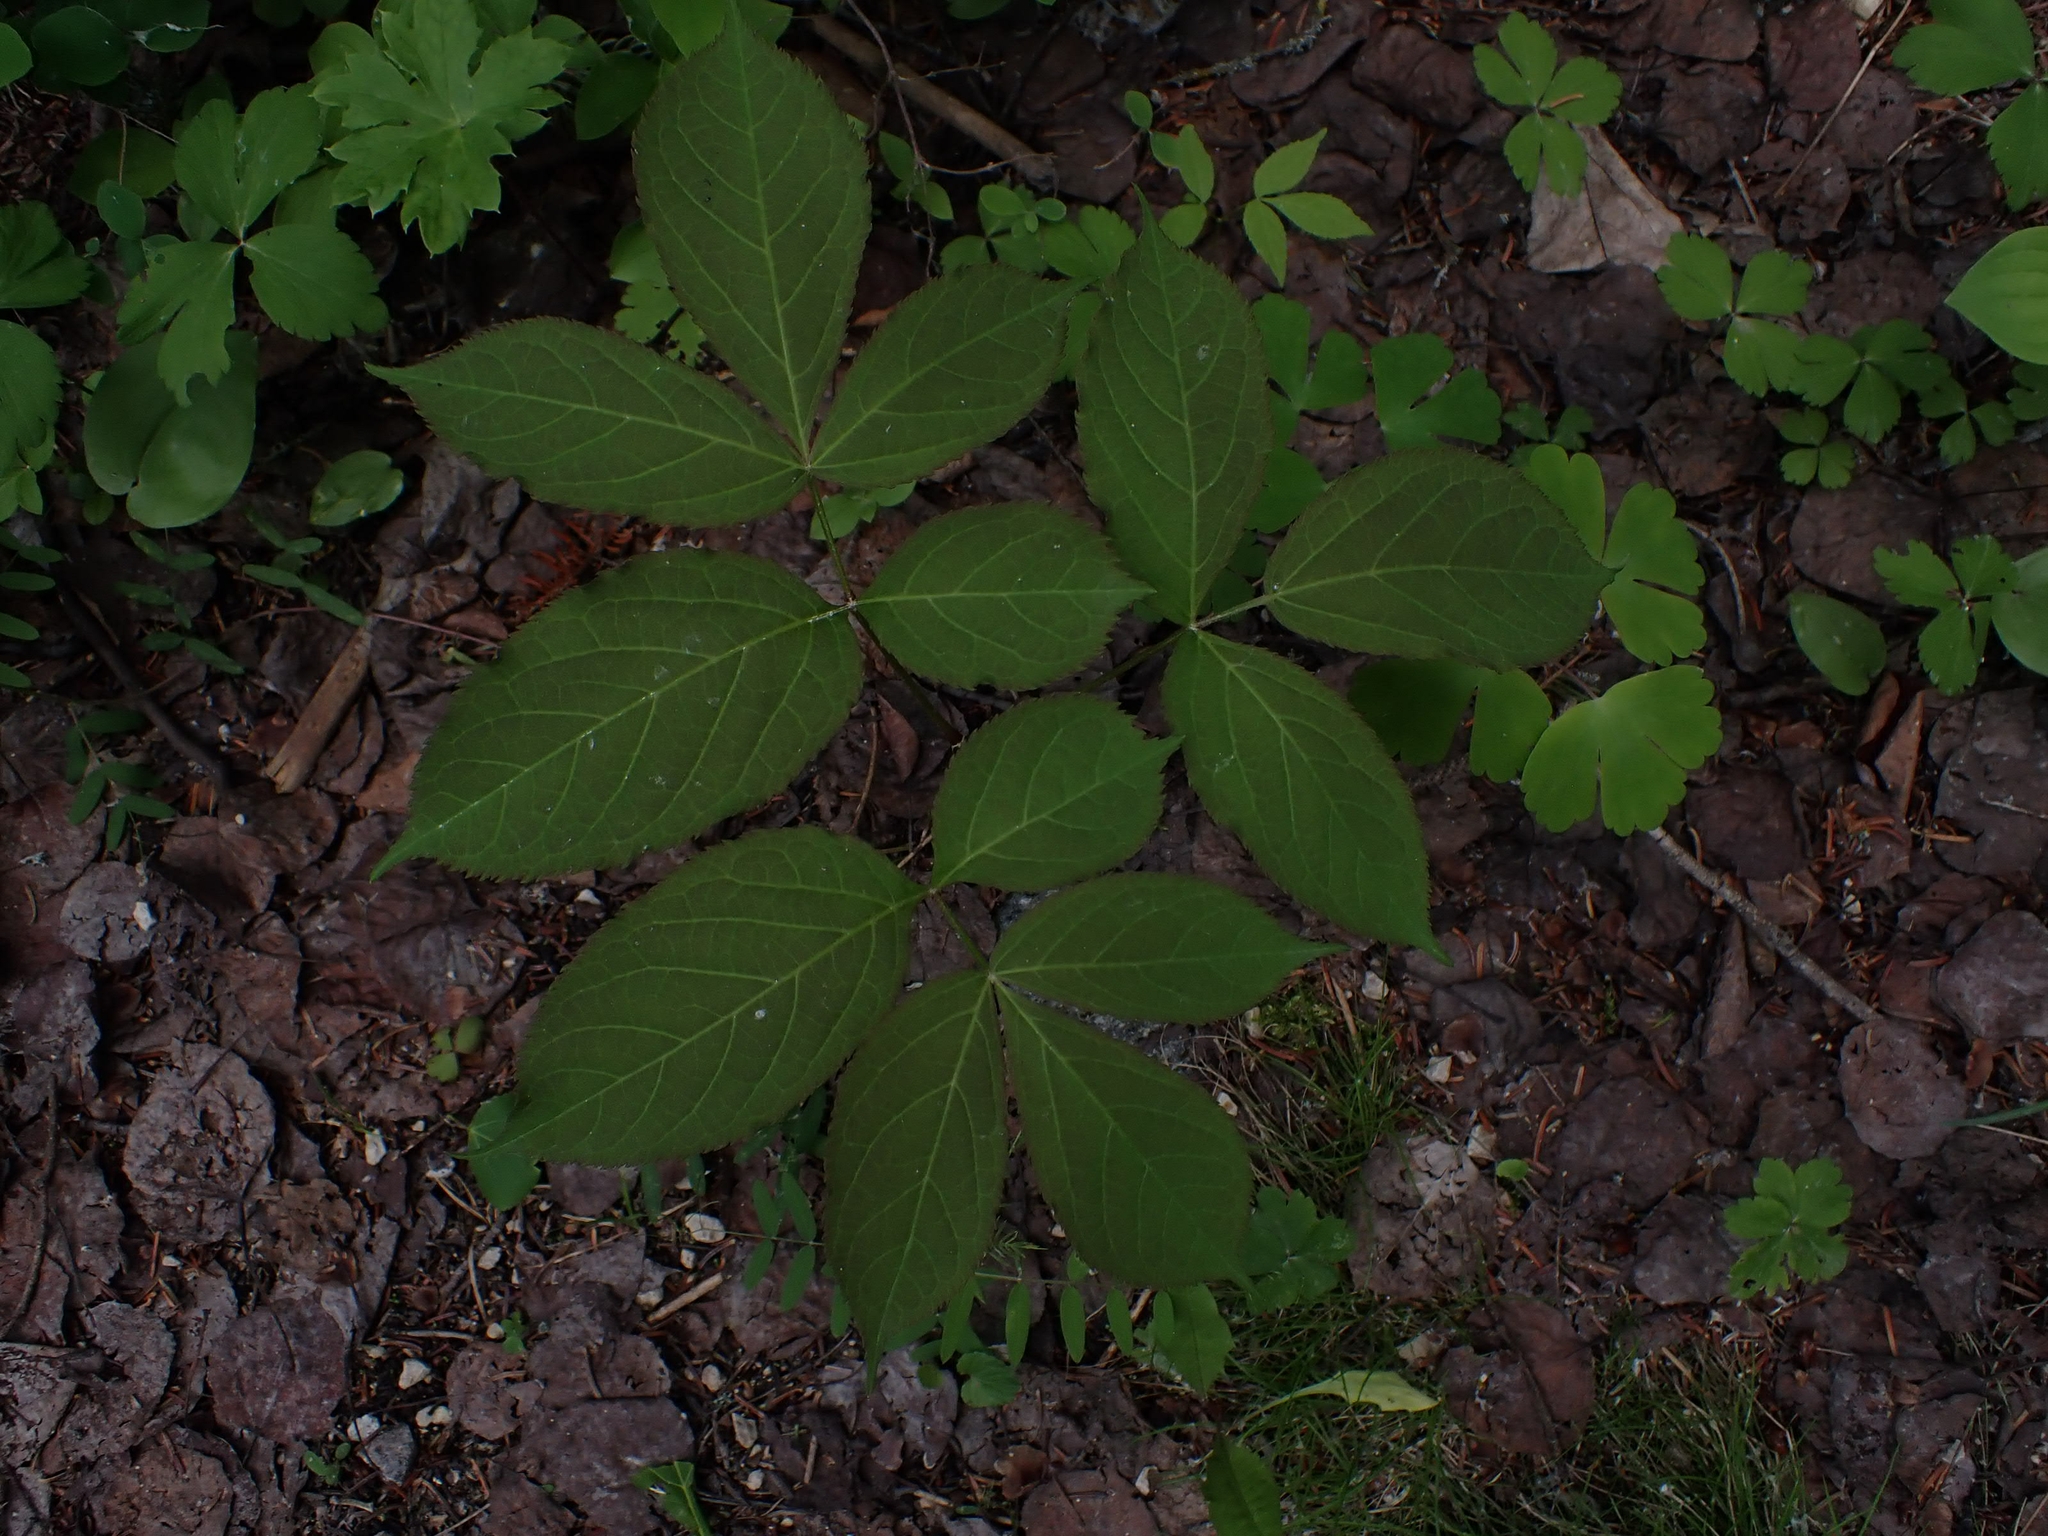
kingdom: Plantae
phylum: Tracheophyta
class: Magnoliopsida
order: Apiales
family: Araliaceae
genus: Aralia
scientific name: Aralia nudicaulis
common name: Wild sarsaparilla
